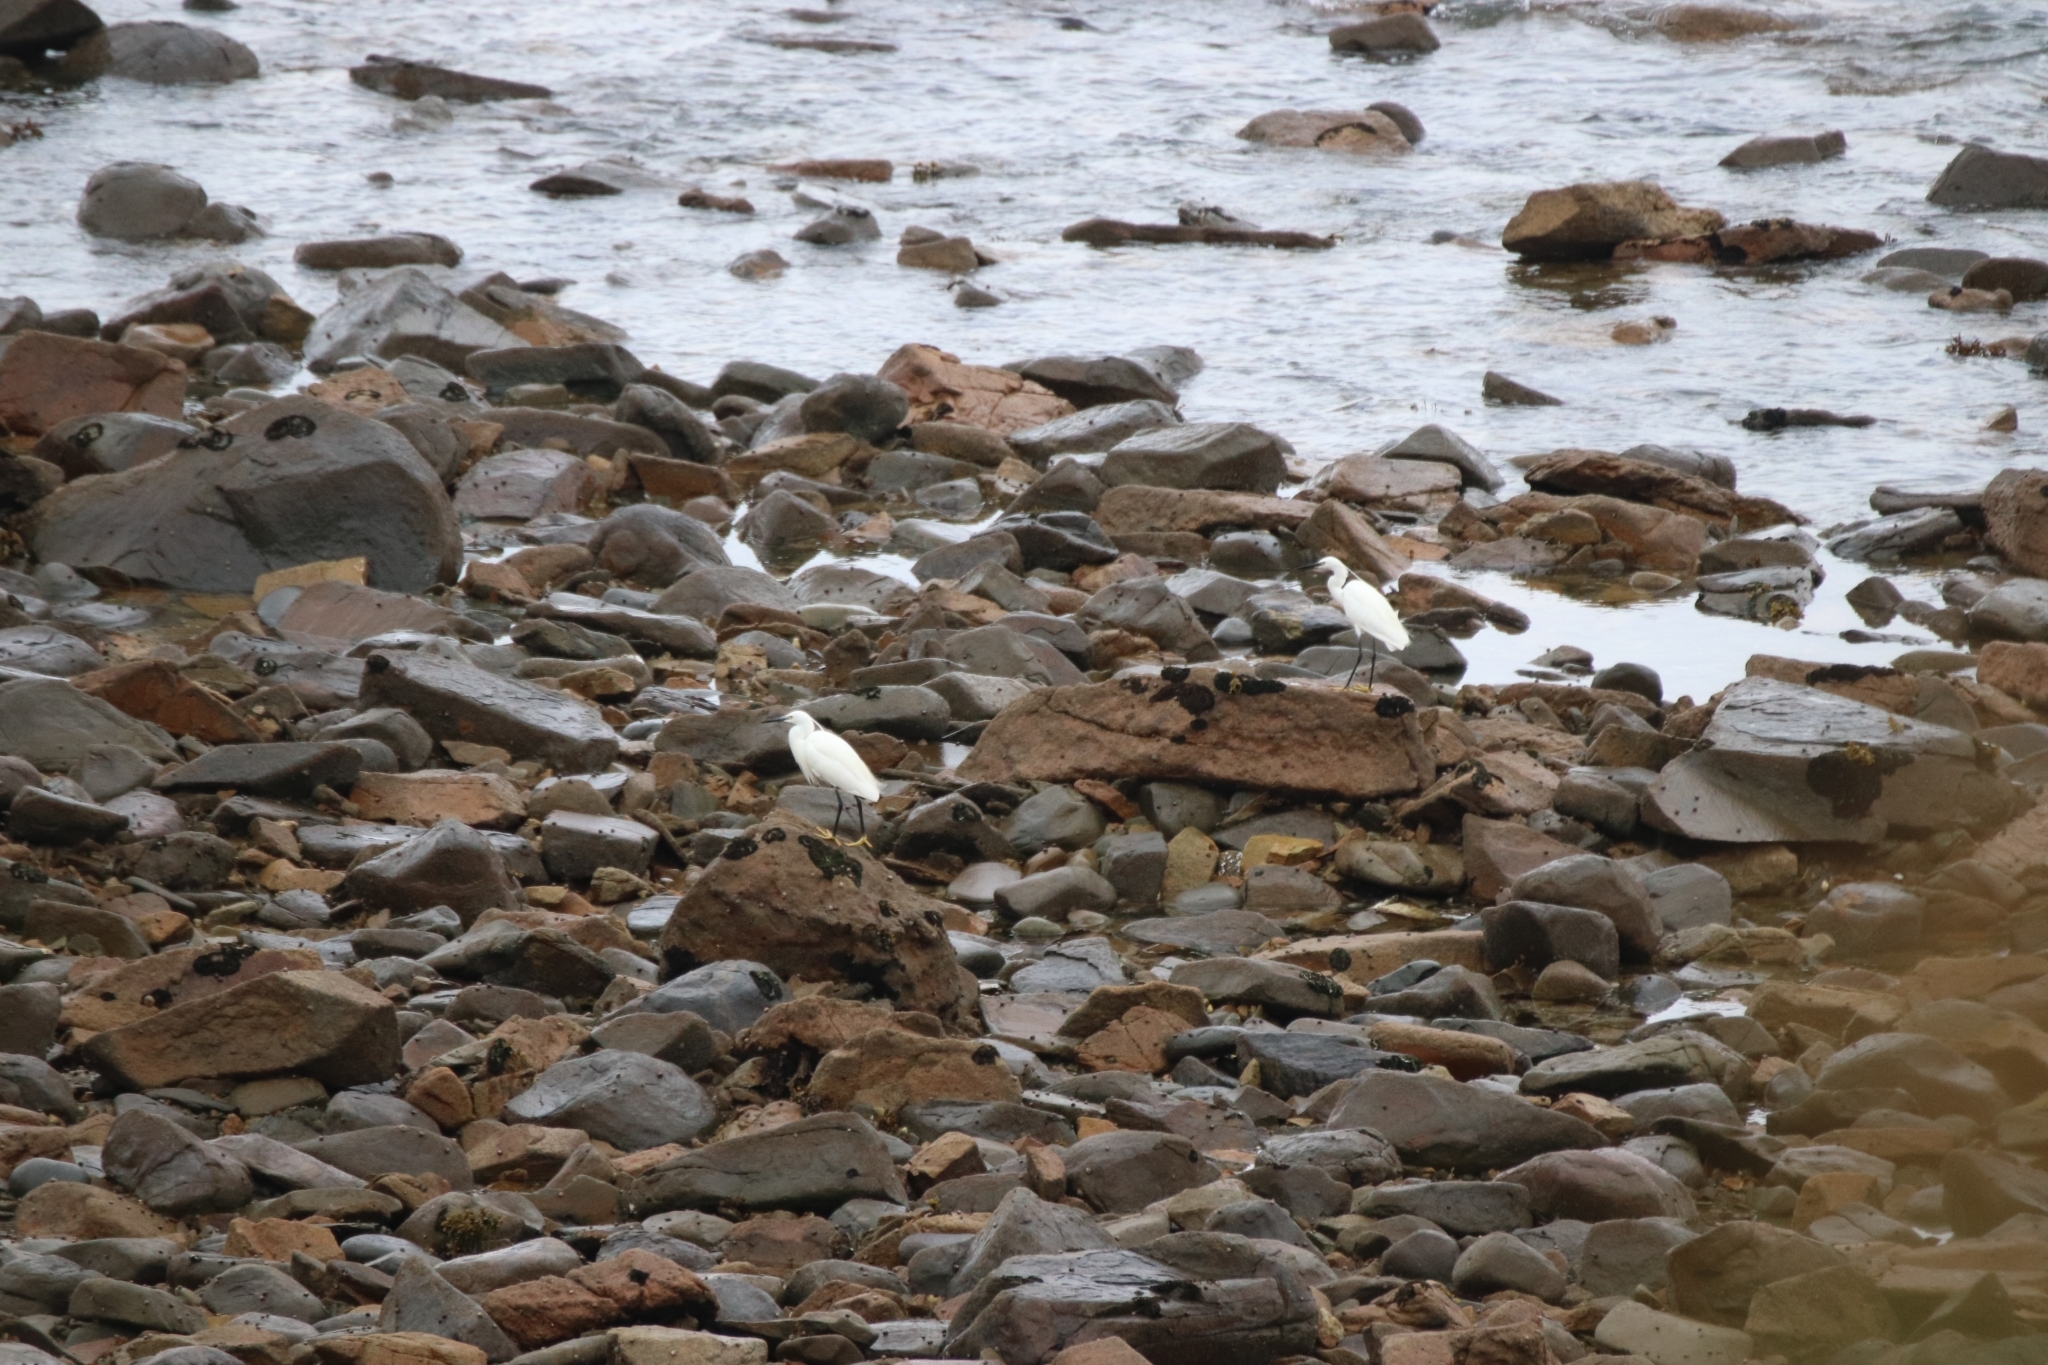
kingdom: Animalia
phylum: Chordata
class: Aves
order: Pelecaniformes
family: Ardeidae
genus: Egretta
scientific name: Egretta garzetta
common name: Little egret
